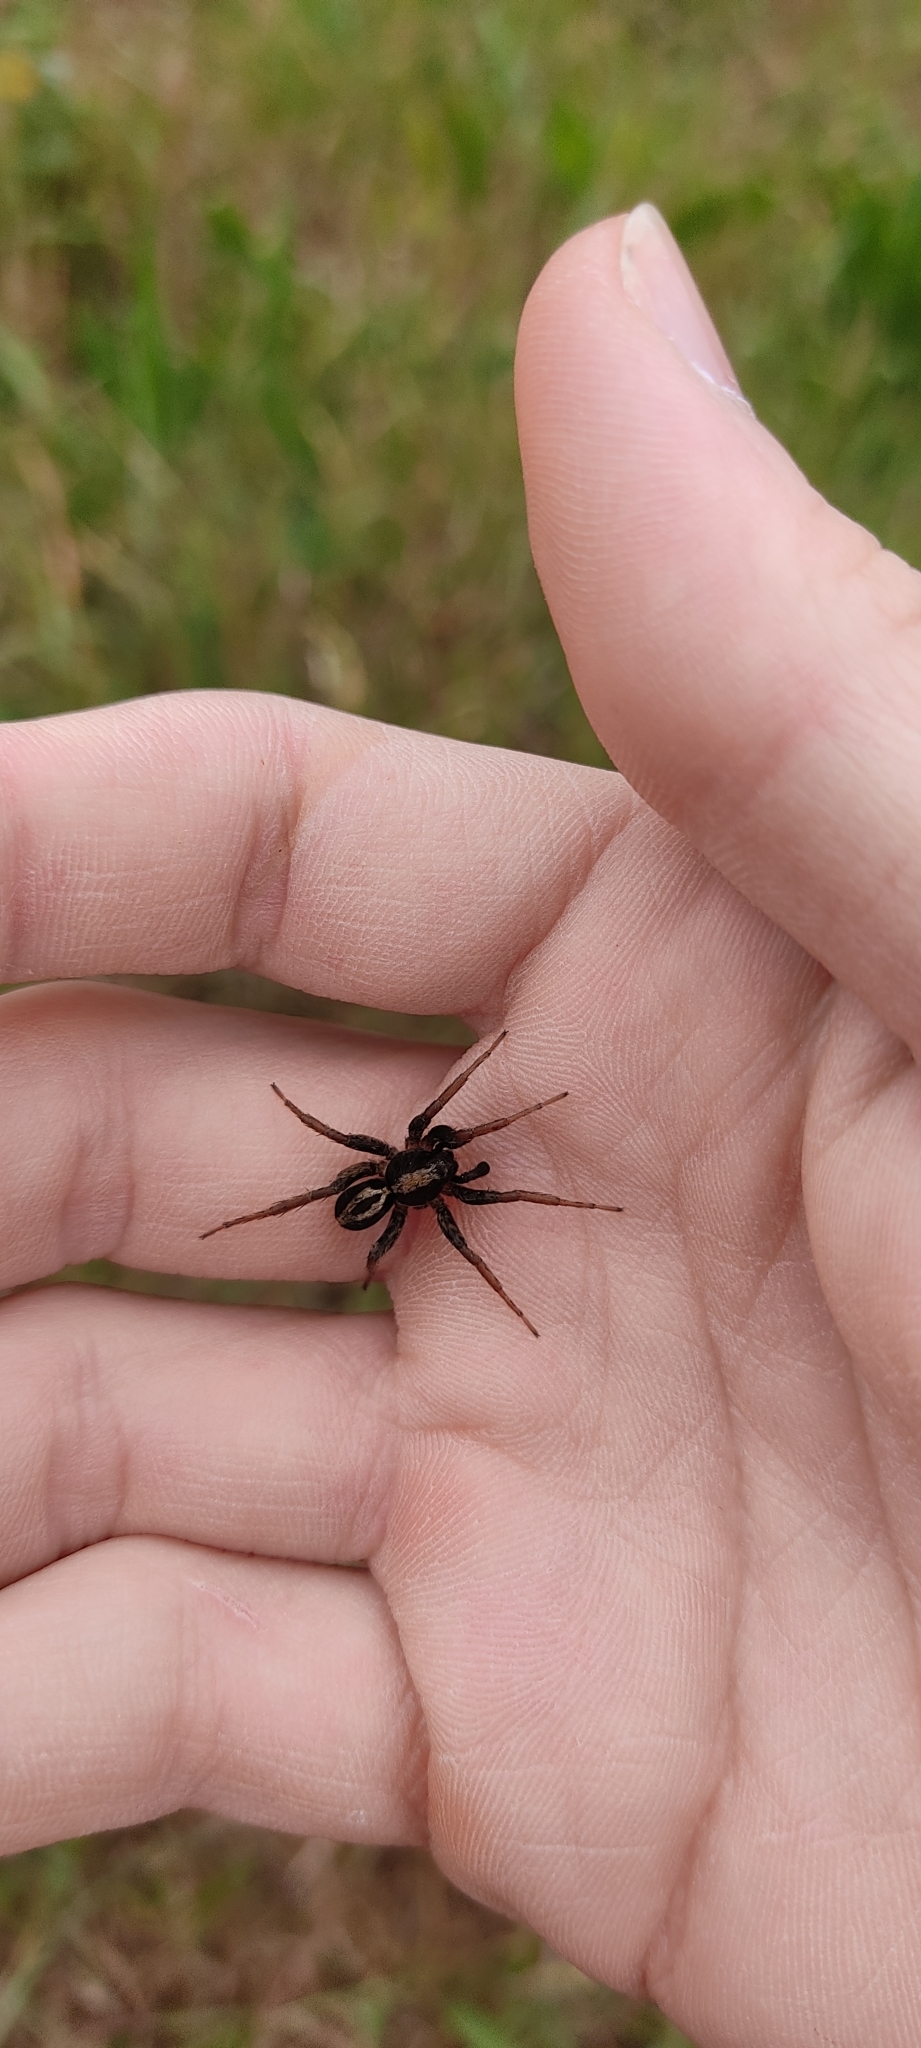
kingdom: Animalia
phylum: Arthropoda
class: Arachnida
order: Araneae
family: Lycosidae
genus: Alopecosa
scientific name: Alopecosa albofasciata
